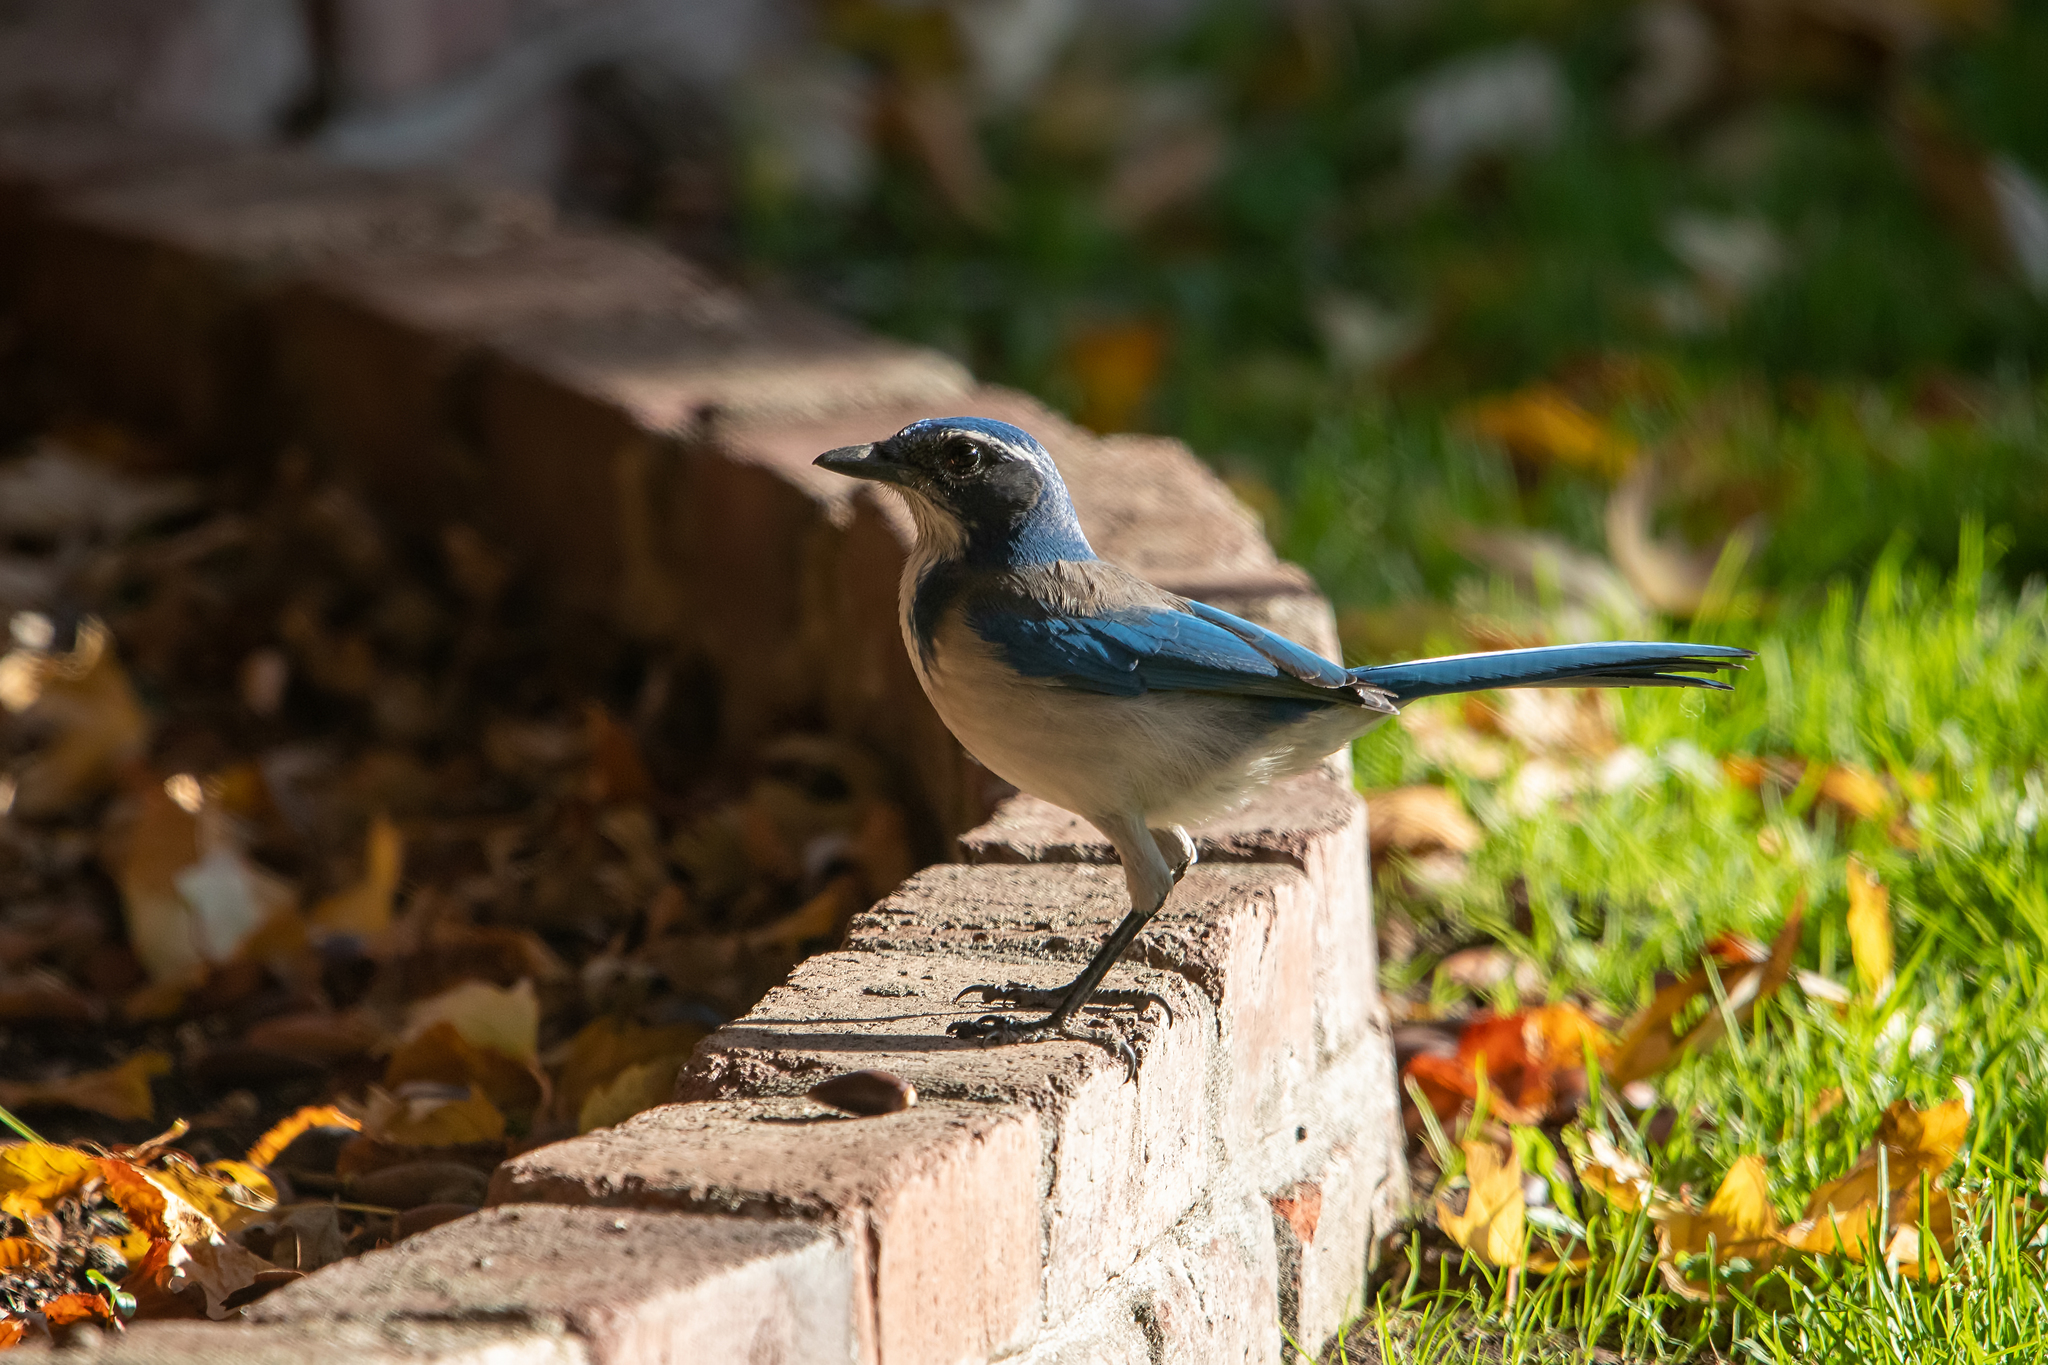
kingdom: Animalia
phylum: Chordata
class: Aves
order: Passeriformes
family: Corvidae
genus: Aphelocoma
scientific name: Aphelocoma californica
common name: California scrub-jay
